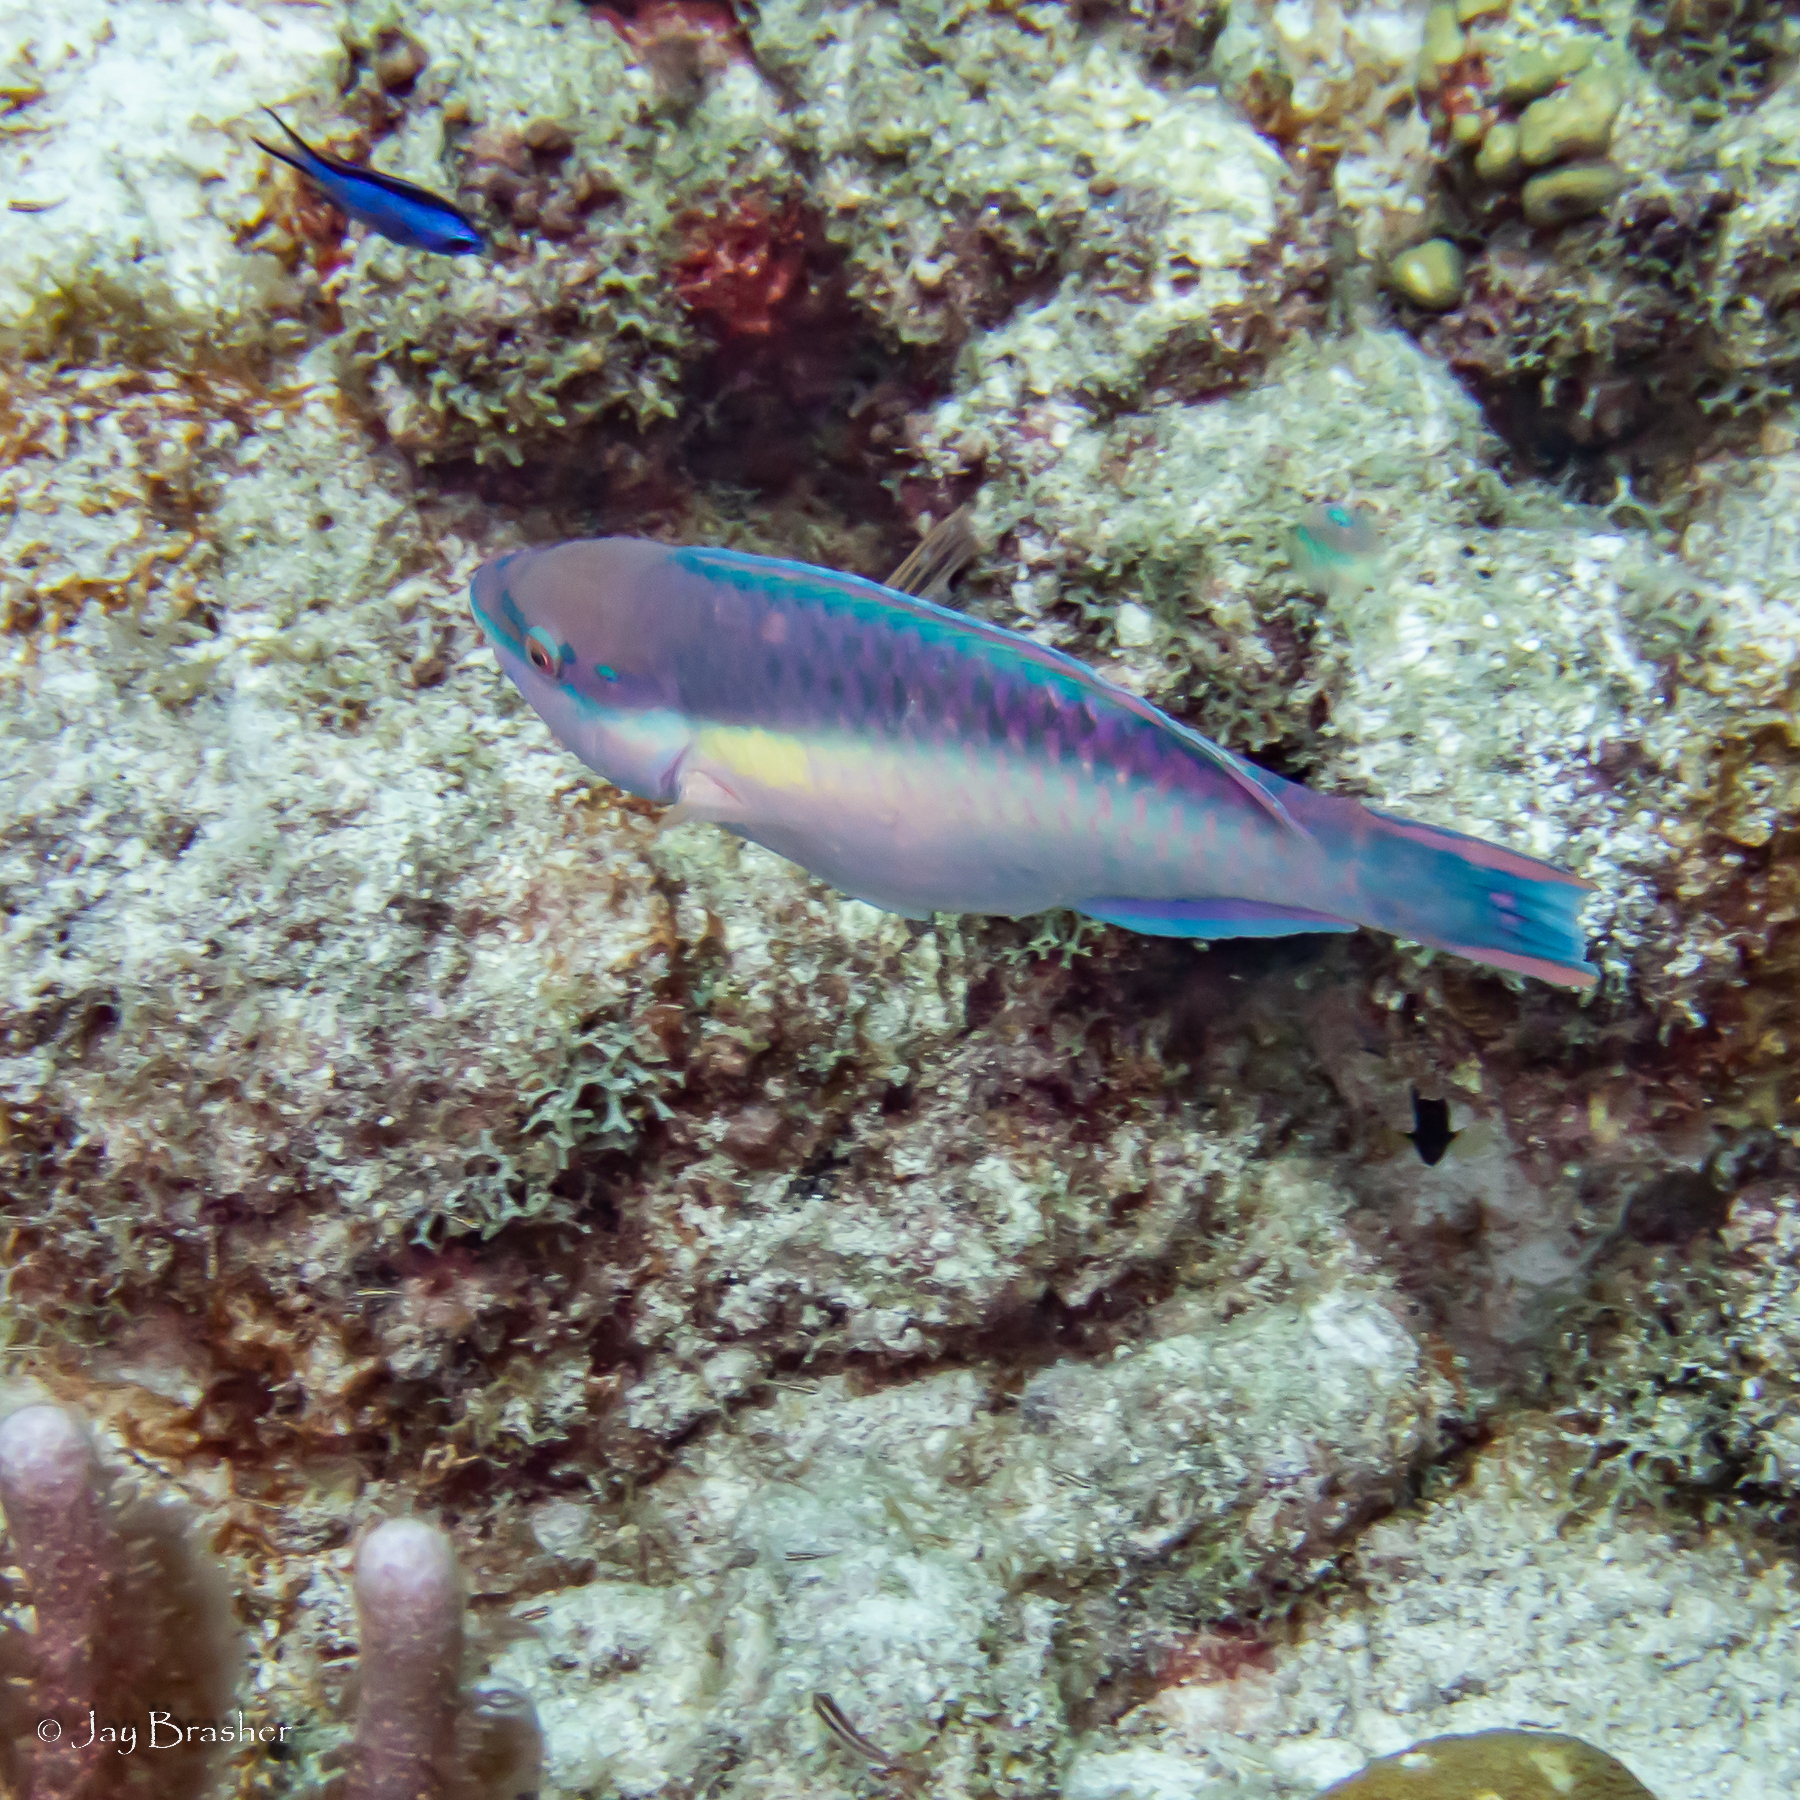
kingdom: Animalia
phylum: Chordata
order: Perciformes
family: Pomacentridae
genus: Chromis
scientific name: Chromis cyanea
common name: Blue chromis
